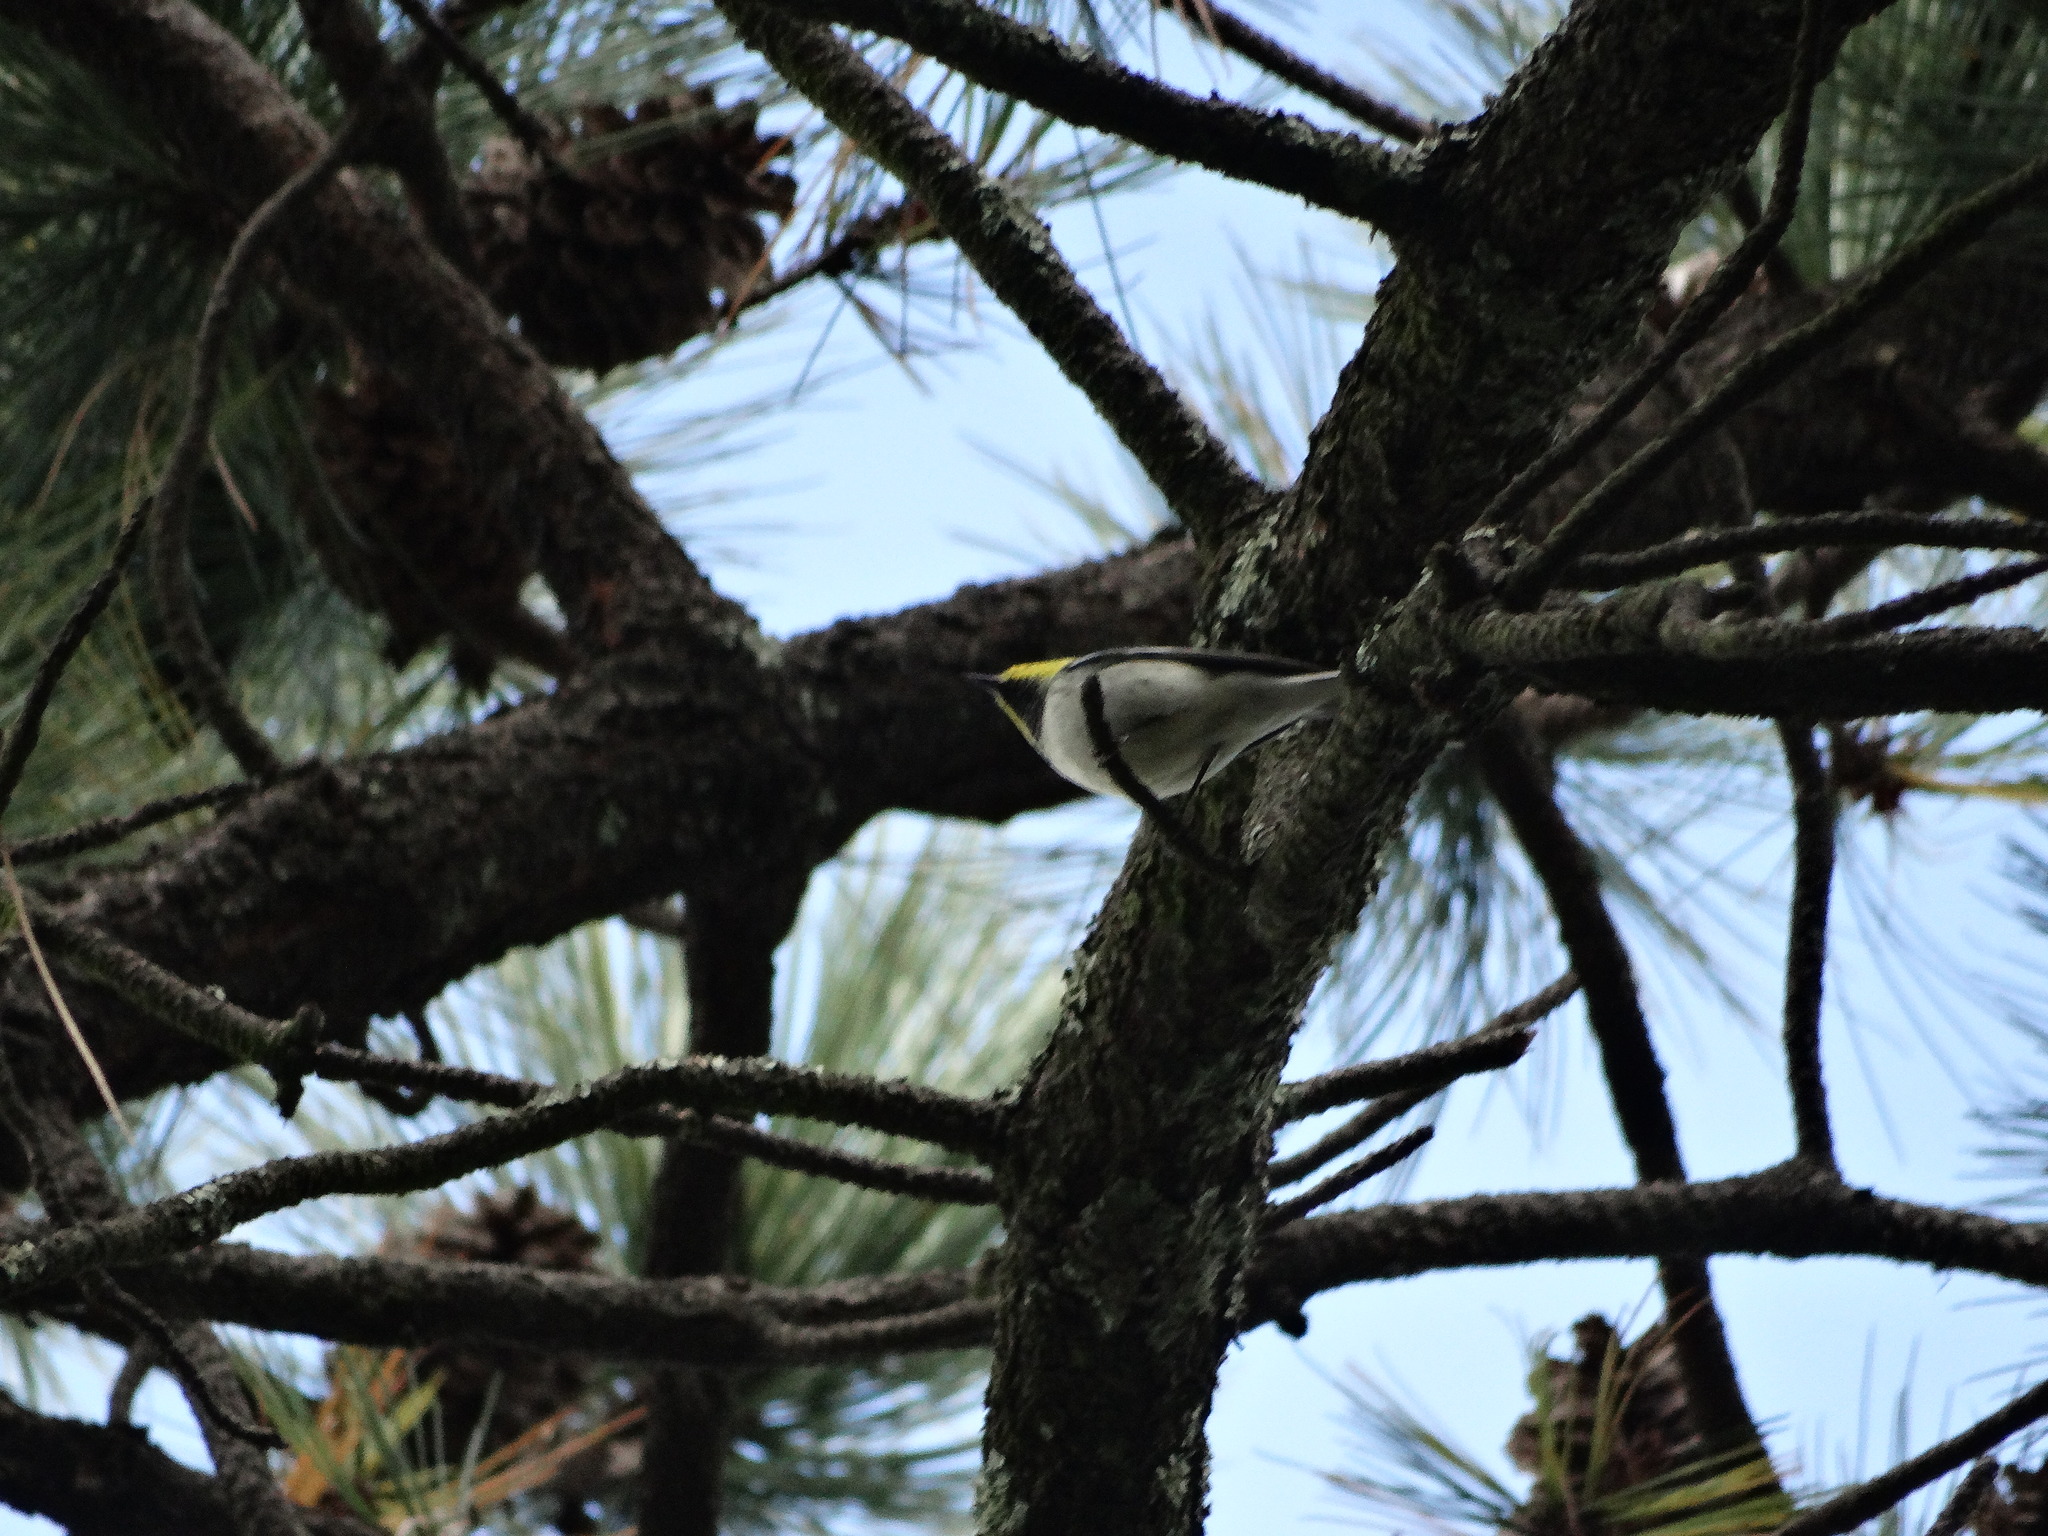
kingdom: Animalia
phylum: Chordata
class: Aves
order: Passeriformes
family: Parulidae
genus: Setophaga
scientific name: Setophaga occidentalis
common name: Hermit warbler
